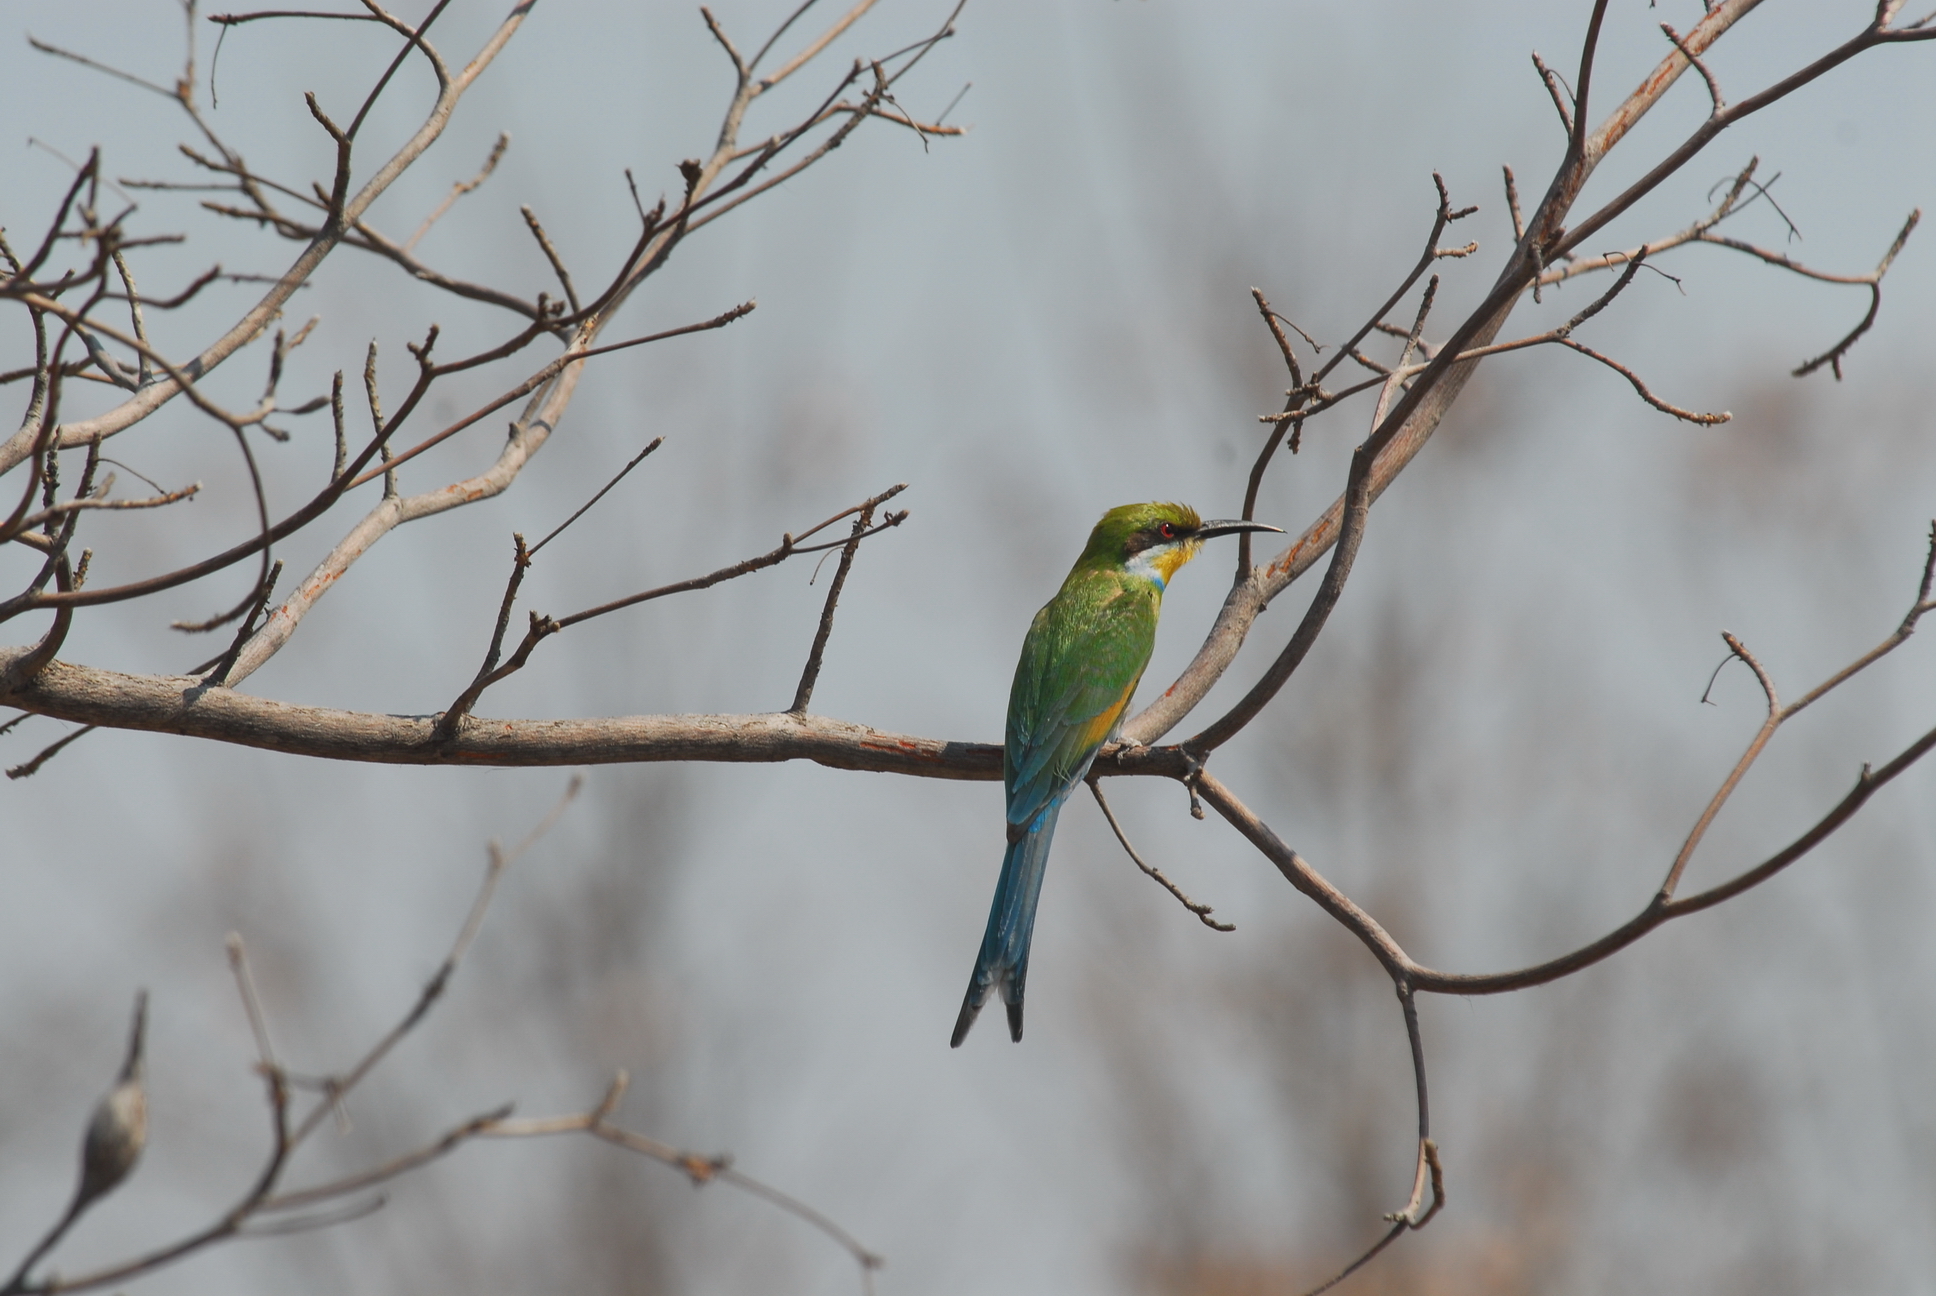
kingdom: Animalia
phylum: Chordata
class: Aves
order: Coraciiformes
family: Meropidae
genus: Merops
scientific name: Merops hirundineus
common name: Swallow-tailed bee-eater
